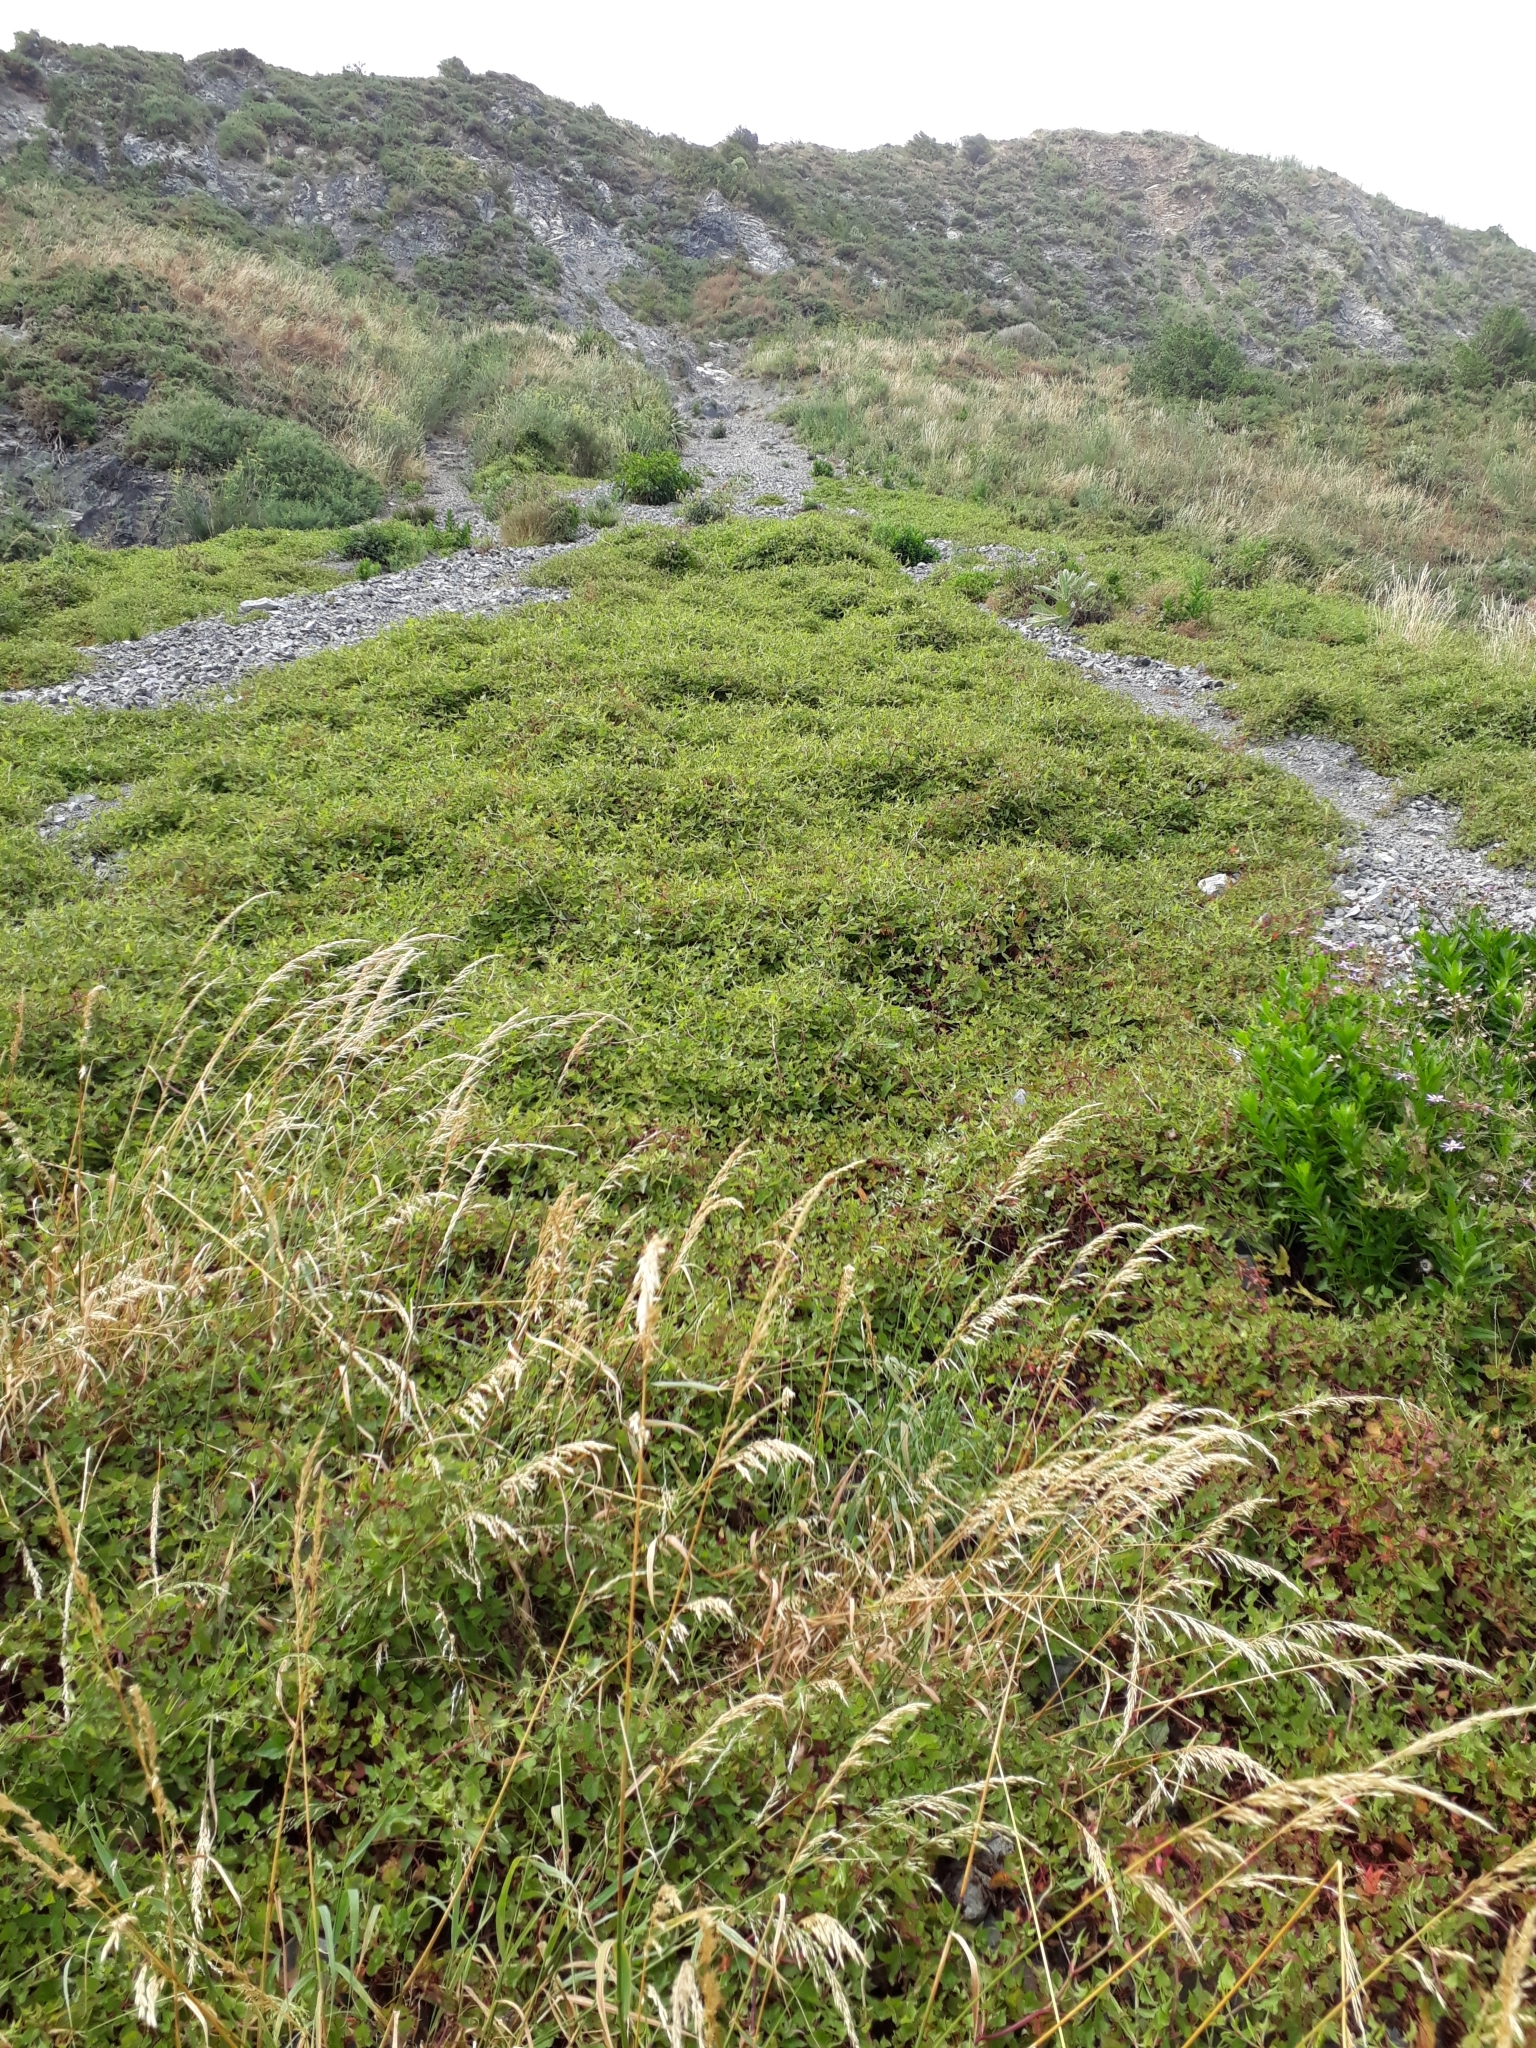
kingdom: Plantae
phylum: Tracheophyta
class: Magnoliopsida
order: Caryophyllales
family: Polygonaceae
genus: Rumex
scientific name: Rumex sagittatus
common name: Climbing dock
